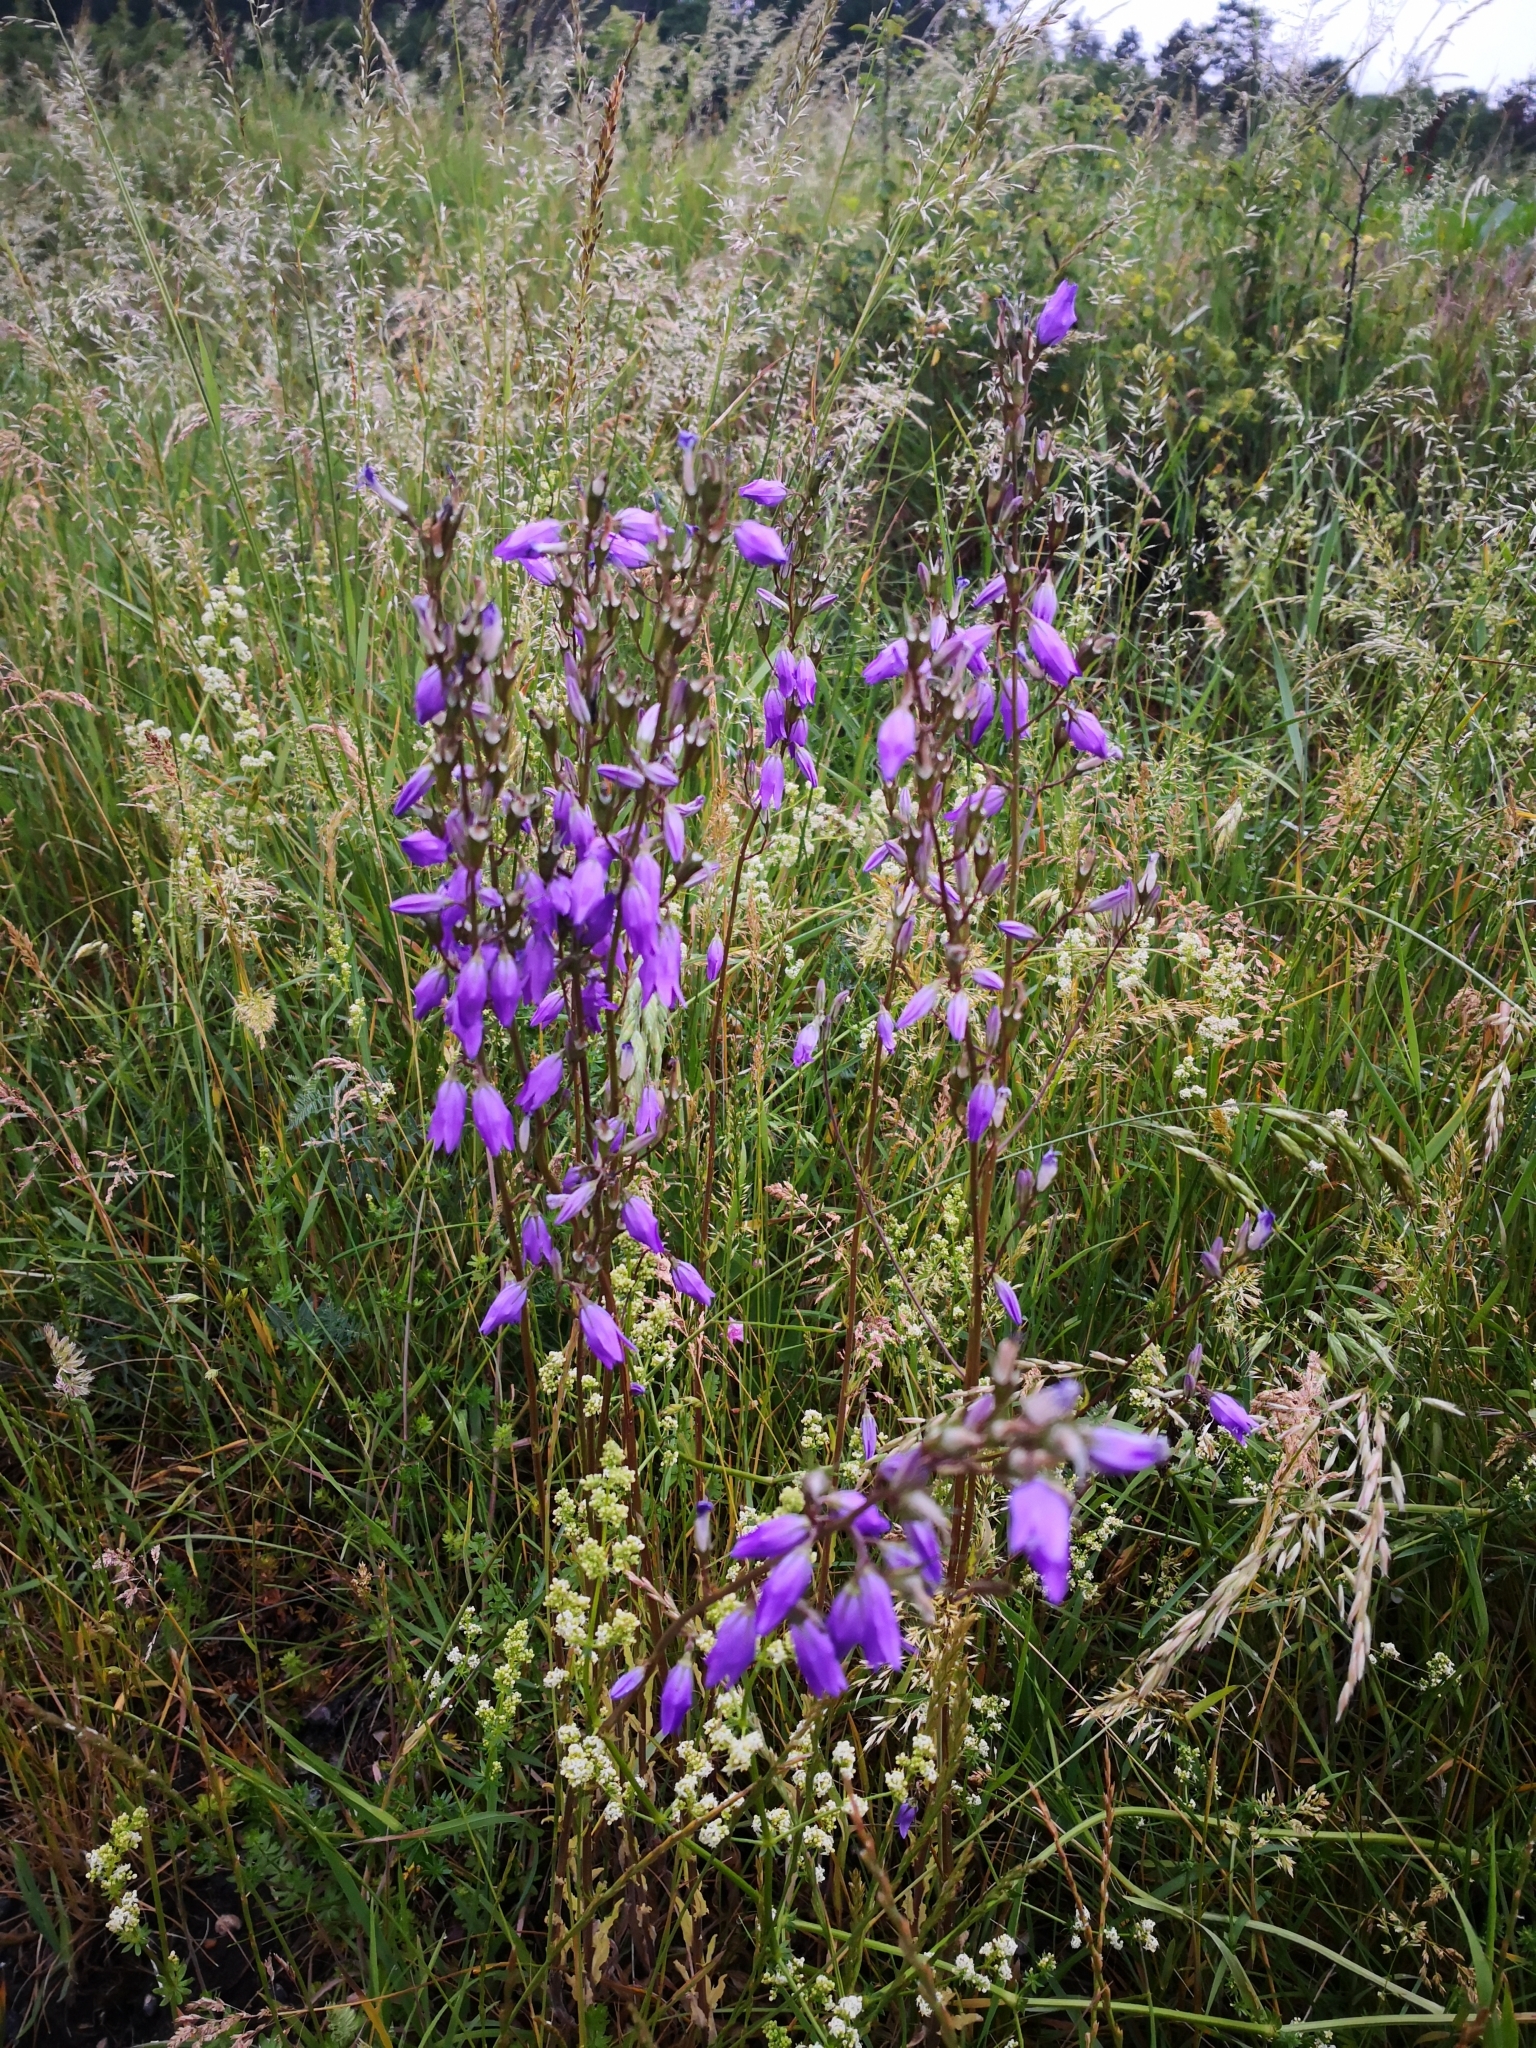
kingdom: Plantae
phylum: Tracheophyta
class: Magnoliopsida
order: Asterales
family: Campanulaceae
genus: Campanula
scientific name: Campanula rapunculoides
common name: Creeping bellflower
